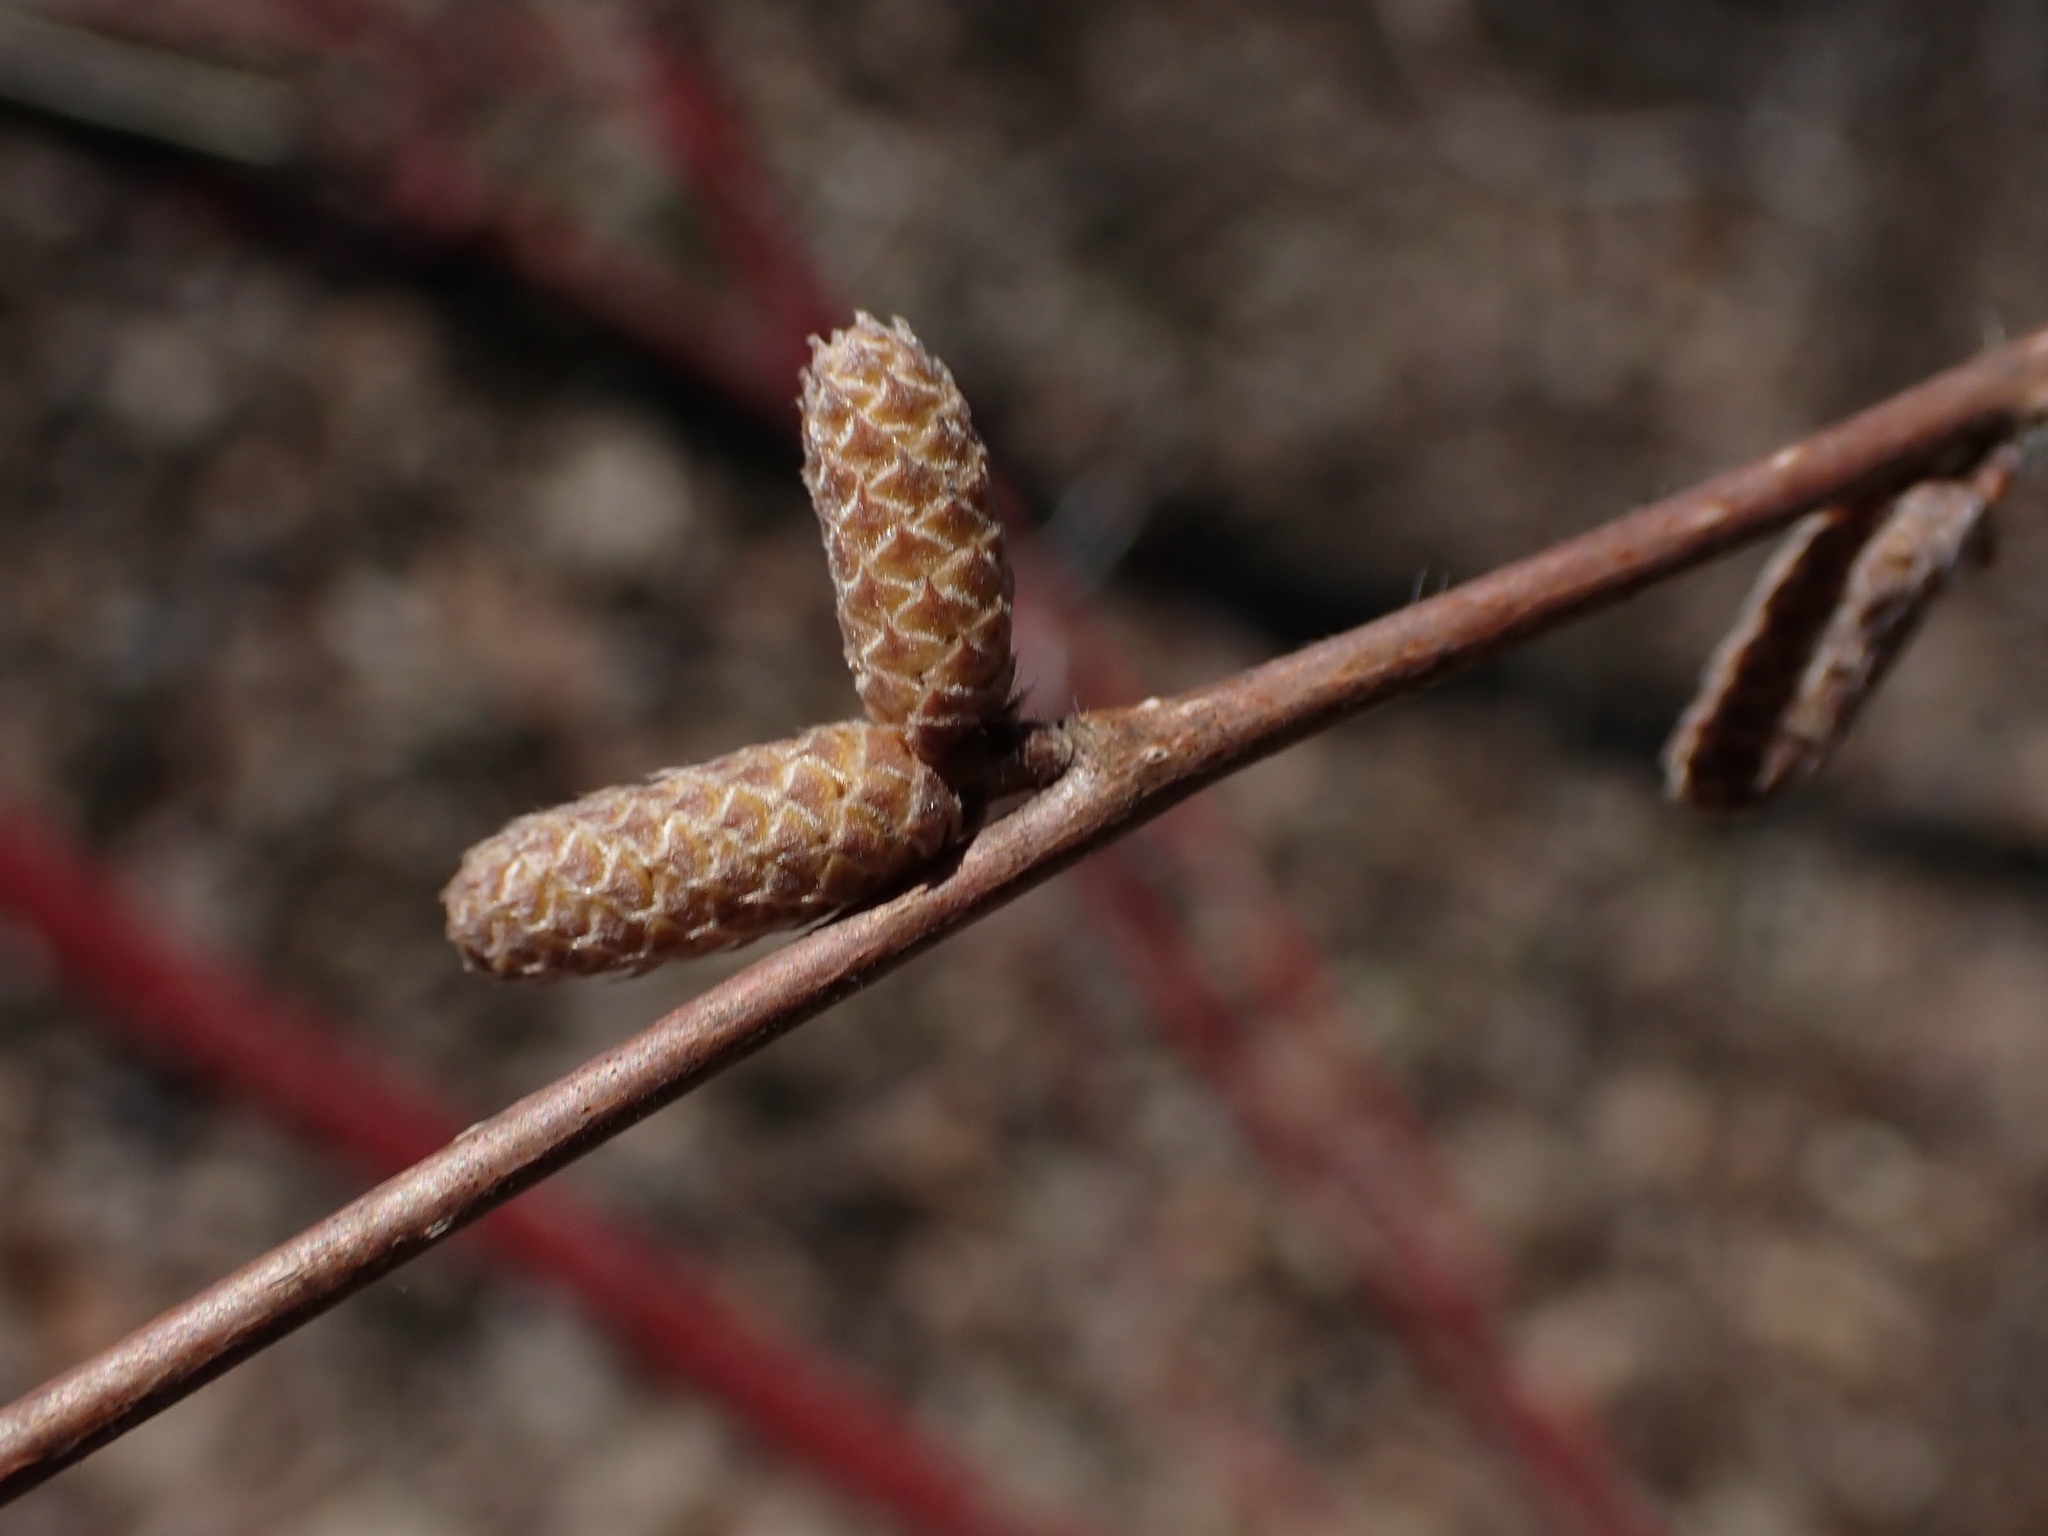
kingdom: Plantae
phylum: Tracheophyta
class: Magnoliopsida
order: Fagales
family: Betulaceae
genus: Corylus
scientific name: Corylus cornuta
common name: Beaked hazel
